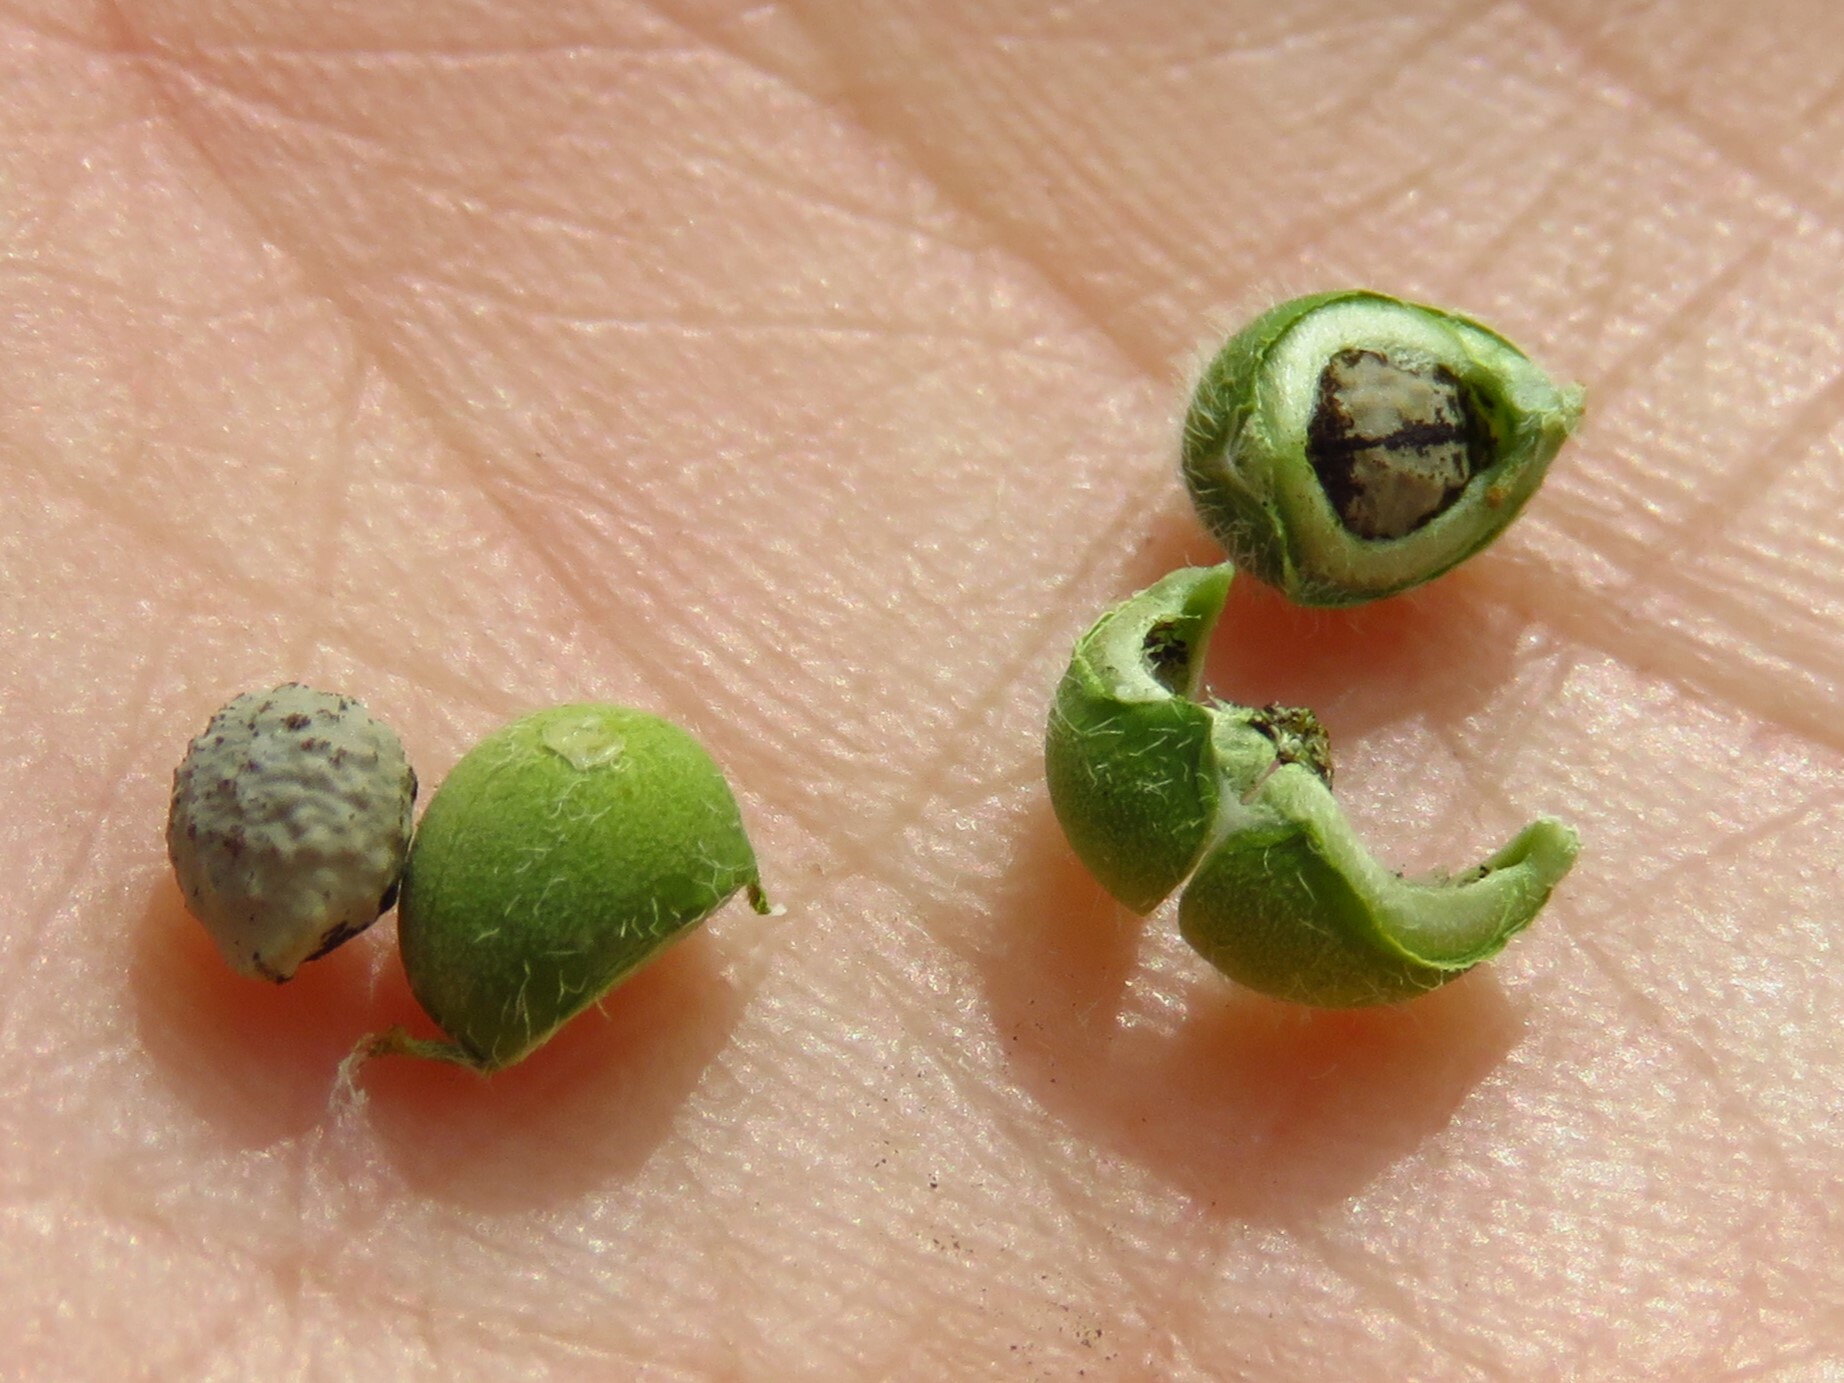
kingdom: Plantae
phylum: Tracheophyta
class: Magnoliopsida
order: Malpighiales
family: Euphorbiaceae
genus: Euphorbia
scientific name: Euphorbia marginata
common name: Ghostweed
